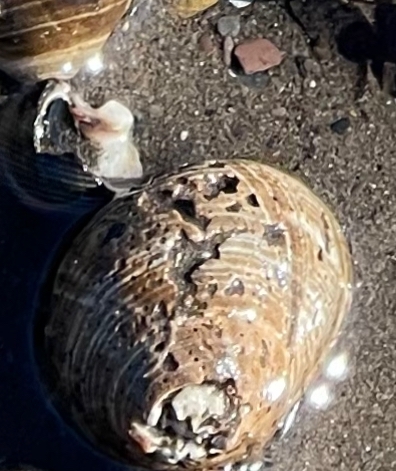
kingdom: Animalia
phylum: Mollusca
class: Gastropoda
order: Littorinimorpha
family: Littorinidae
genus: Littorina
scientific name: Littorina littorea
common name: Common periwinkle
